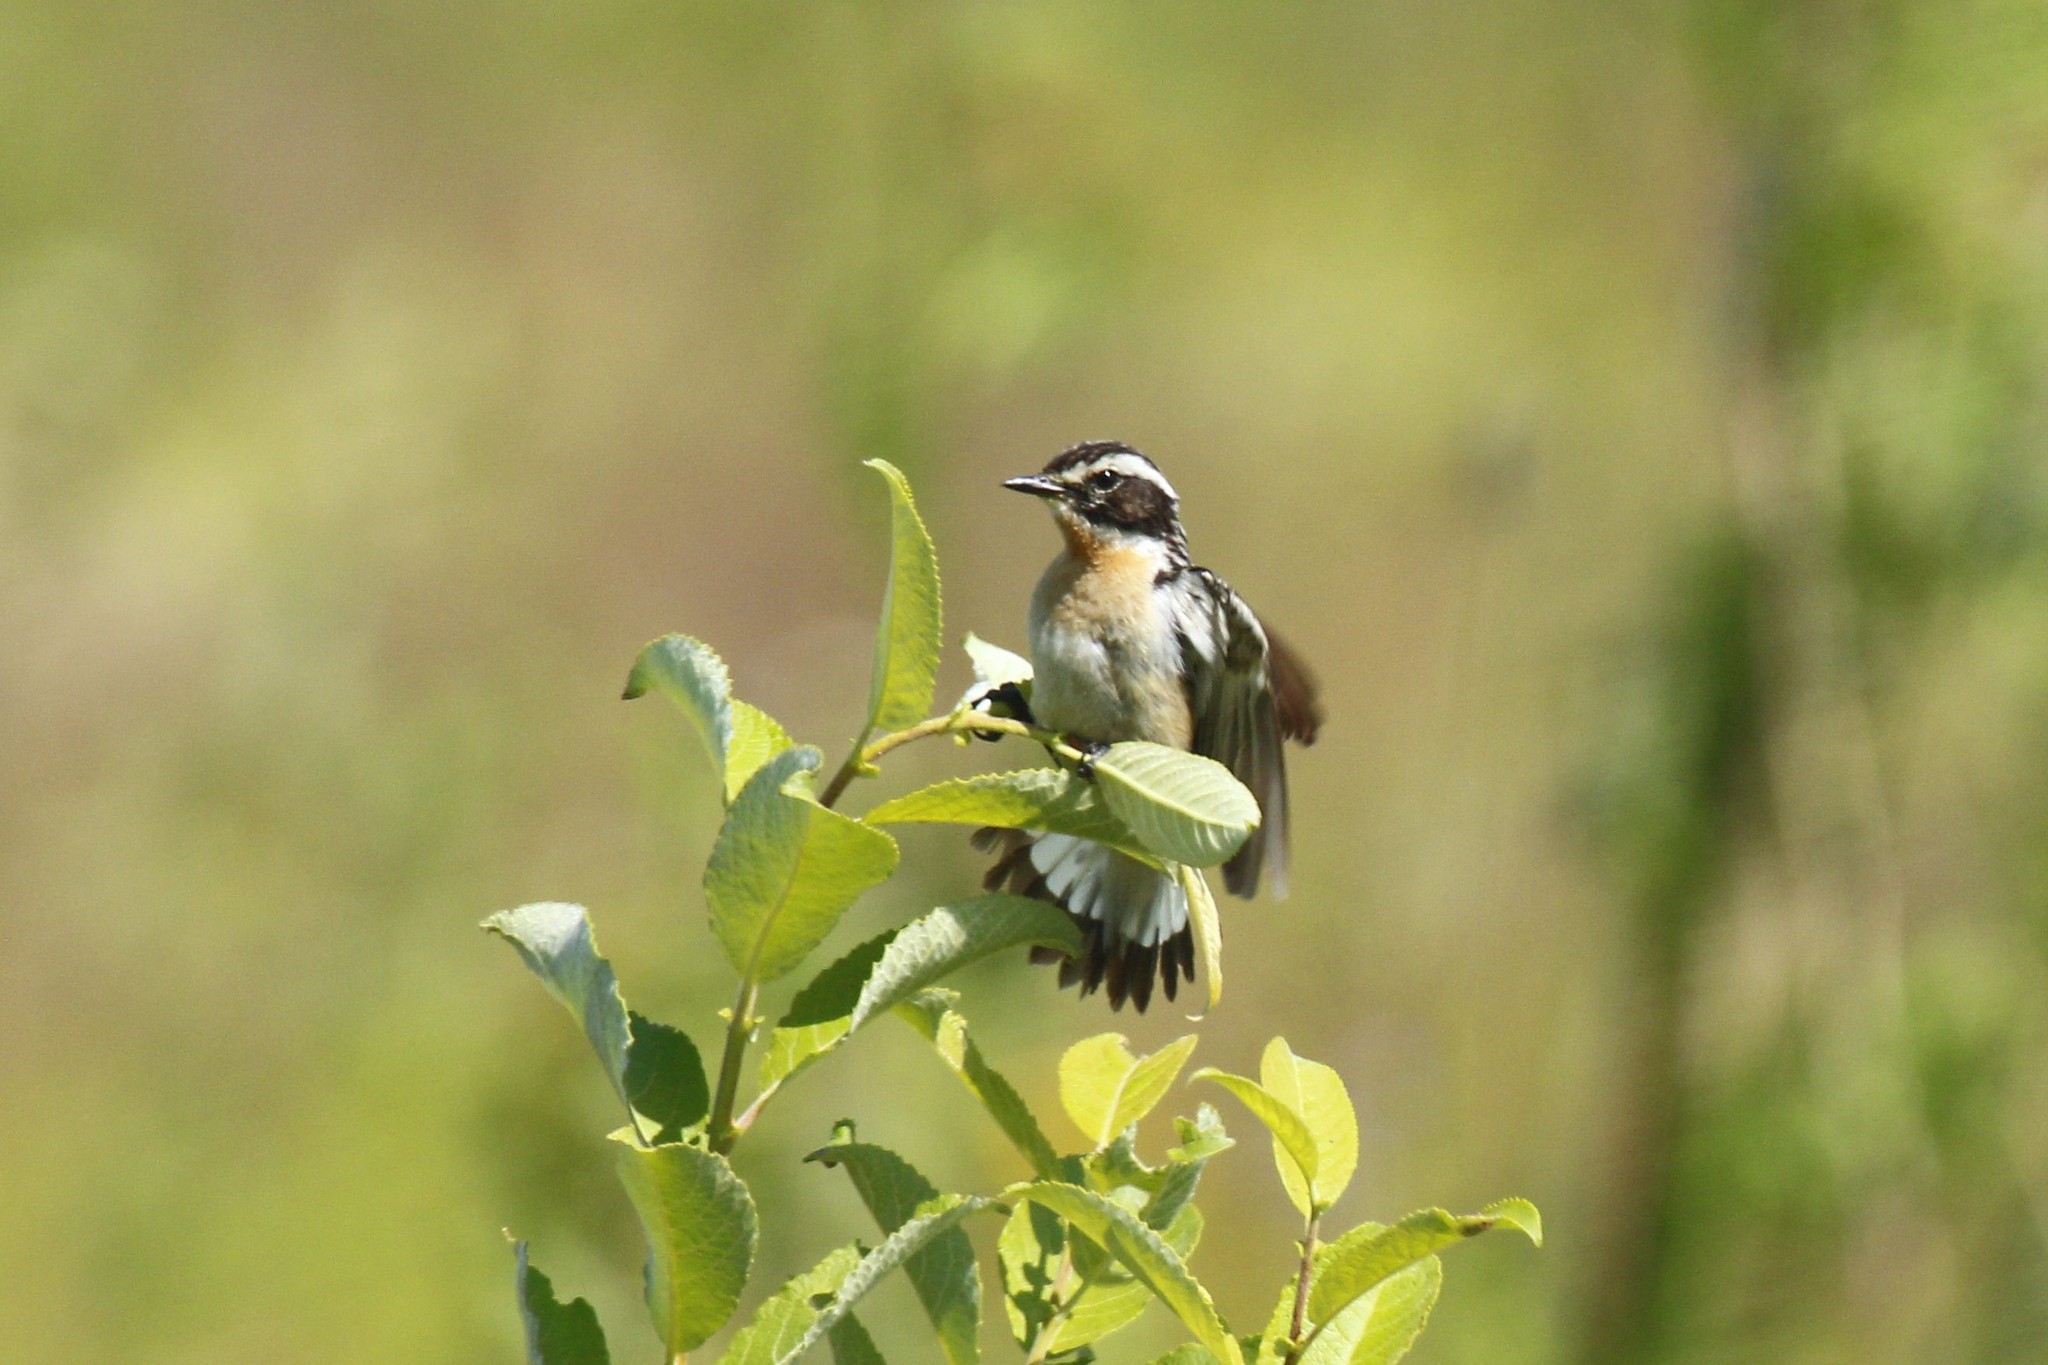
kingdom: Animalia
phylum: Chordata
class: Aves
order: Passeriformes
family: Muscicapidae
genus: Saxicola
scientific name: Saxicola rubetra
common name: Whinchat
